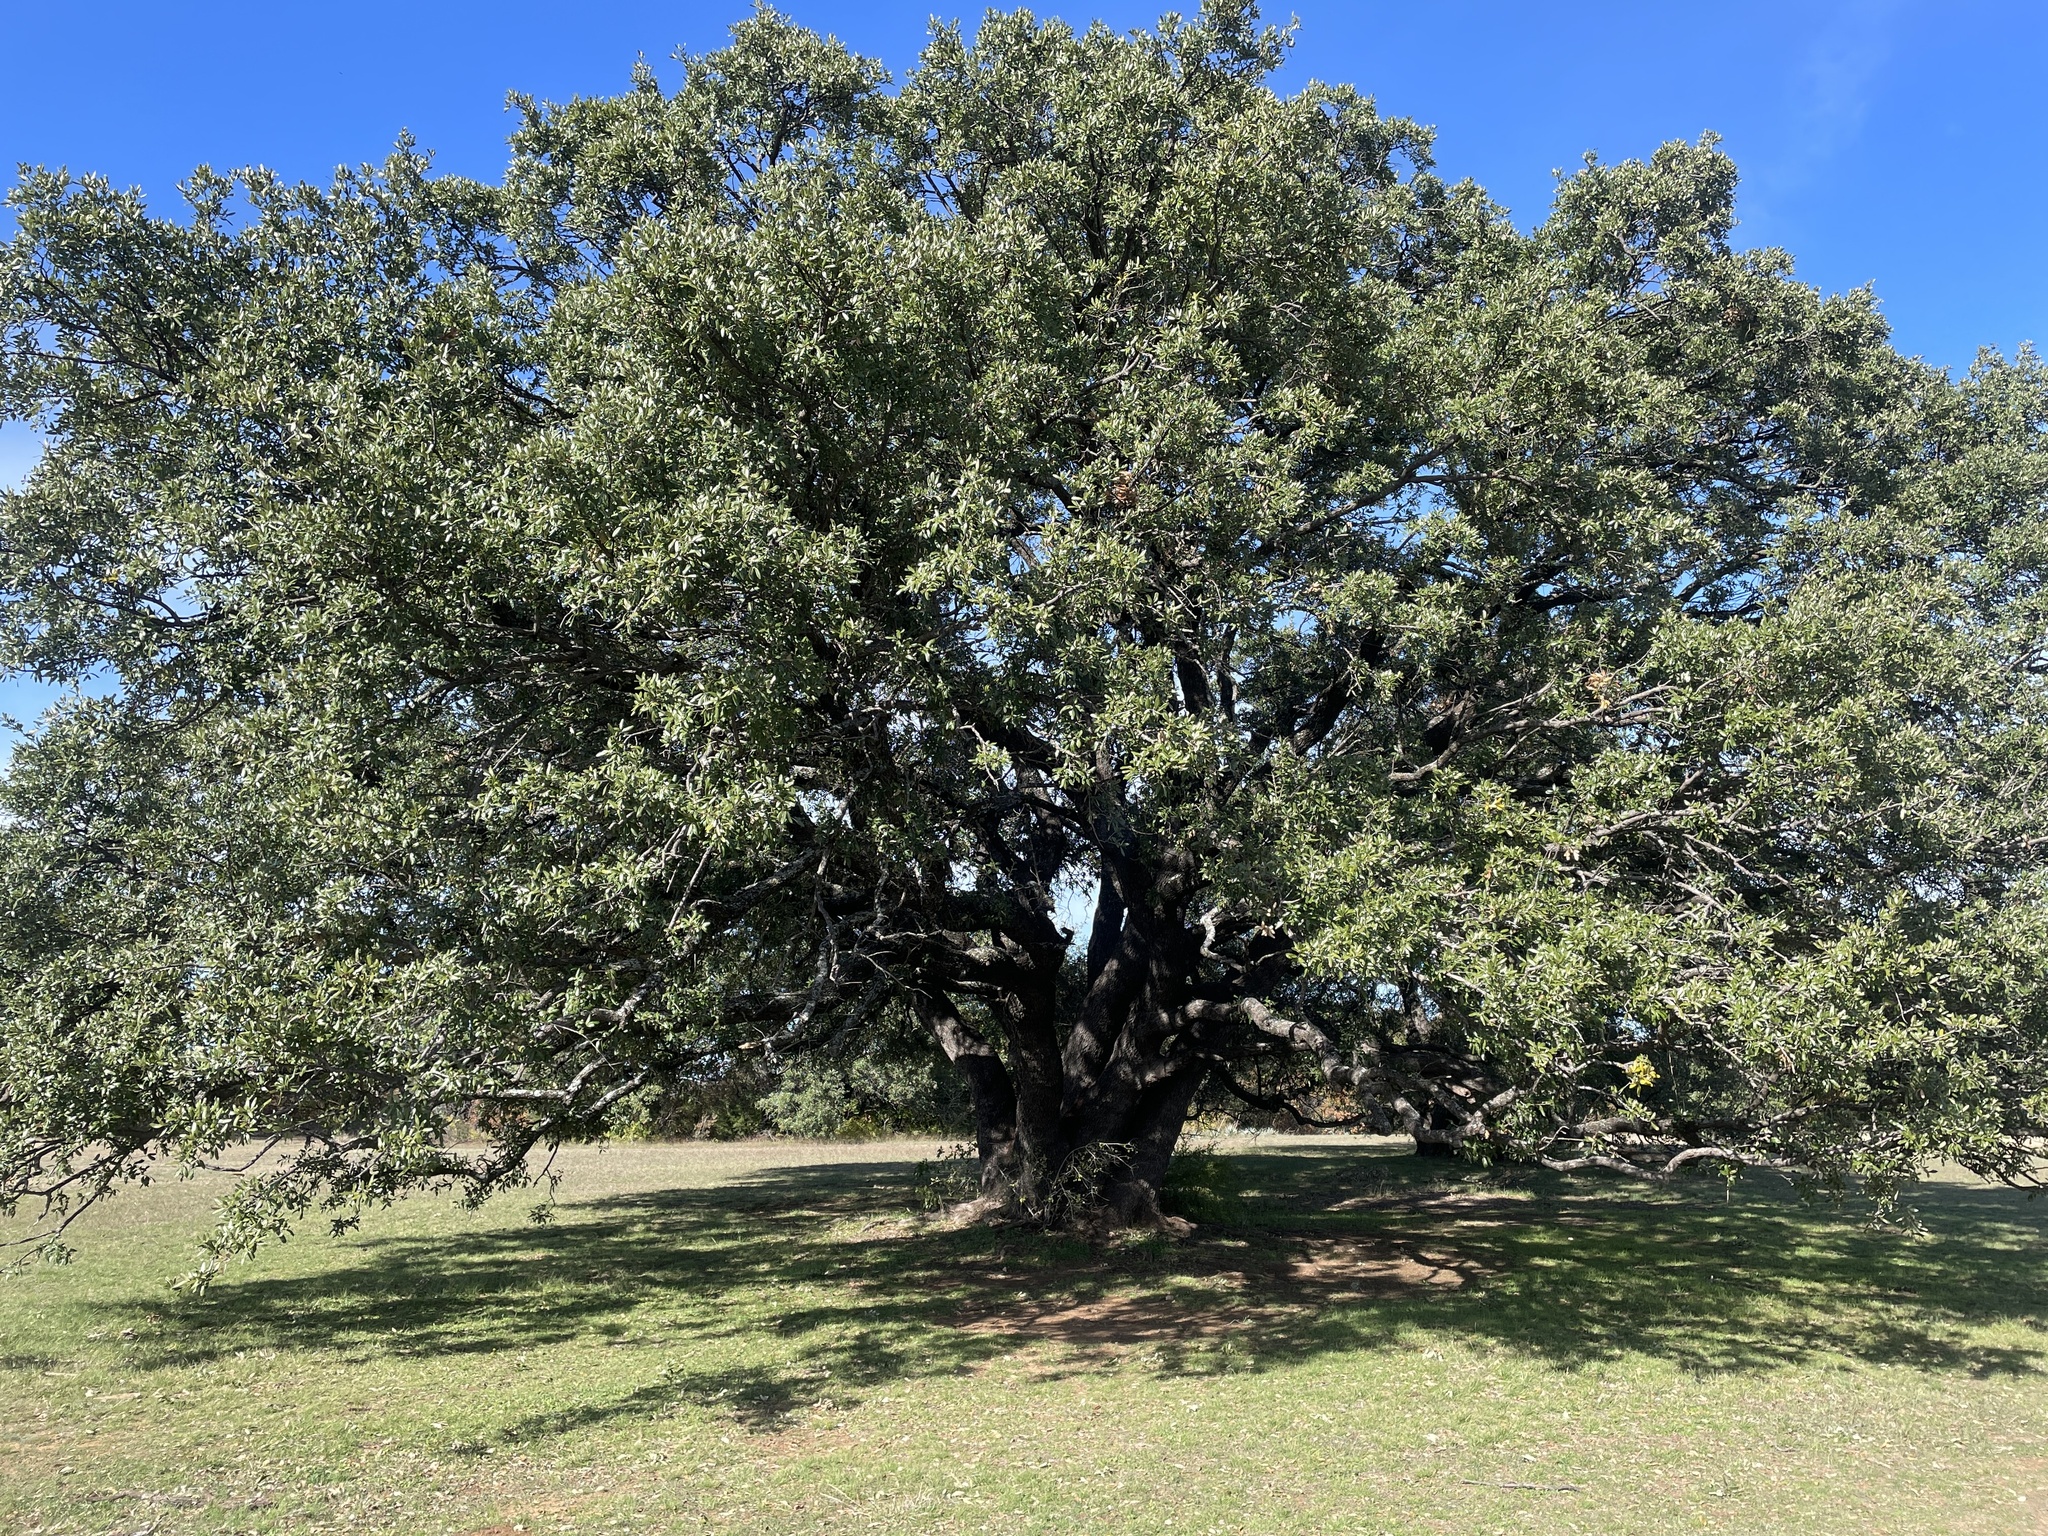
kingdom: Plantae
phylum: Tracheophyta
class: Magnoliopsida
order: Fagales
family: Fagaceae
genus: Quercus
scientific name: Quercus fusiformis
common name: Texas live oak
